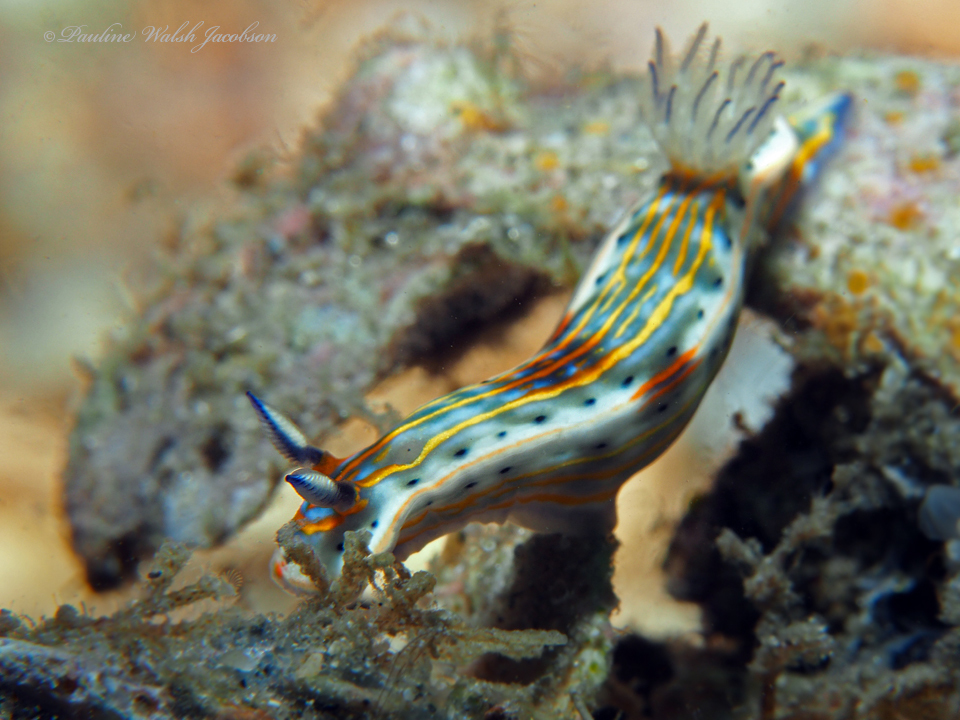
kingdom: Animalia
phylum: Mollusca
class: Gastropoda
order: Nudibranchia
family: Chromodorididae
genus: Felimare
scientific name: Felimare fregona
